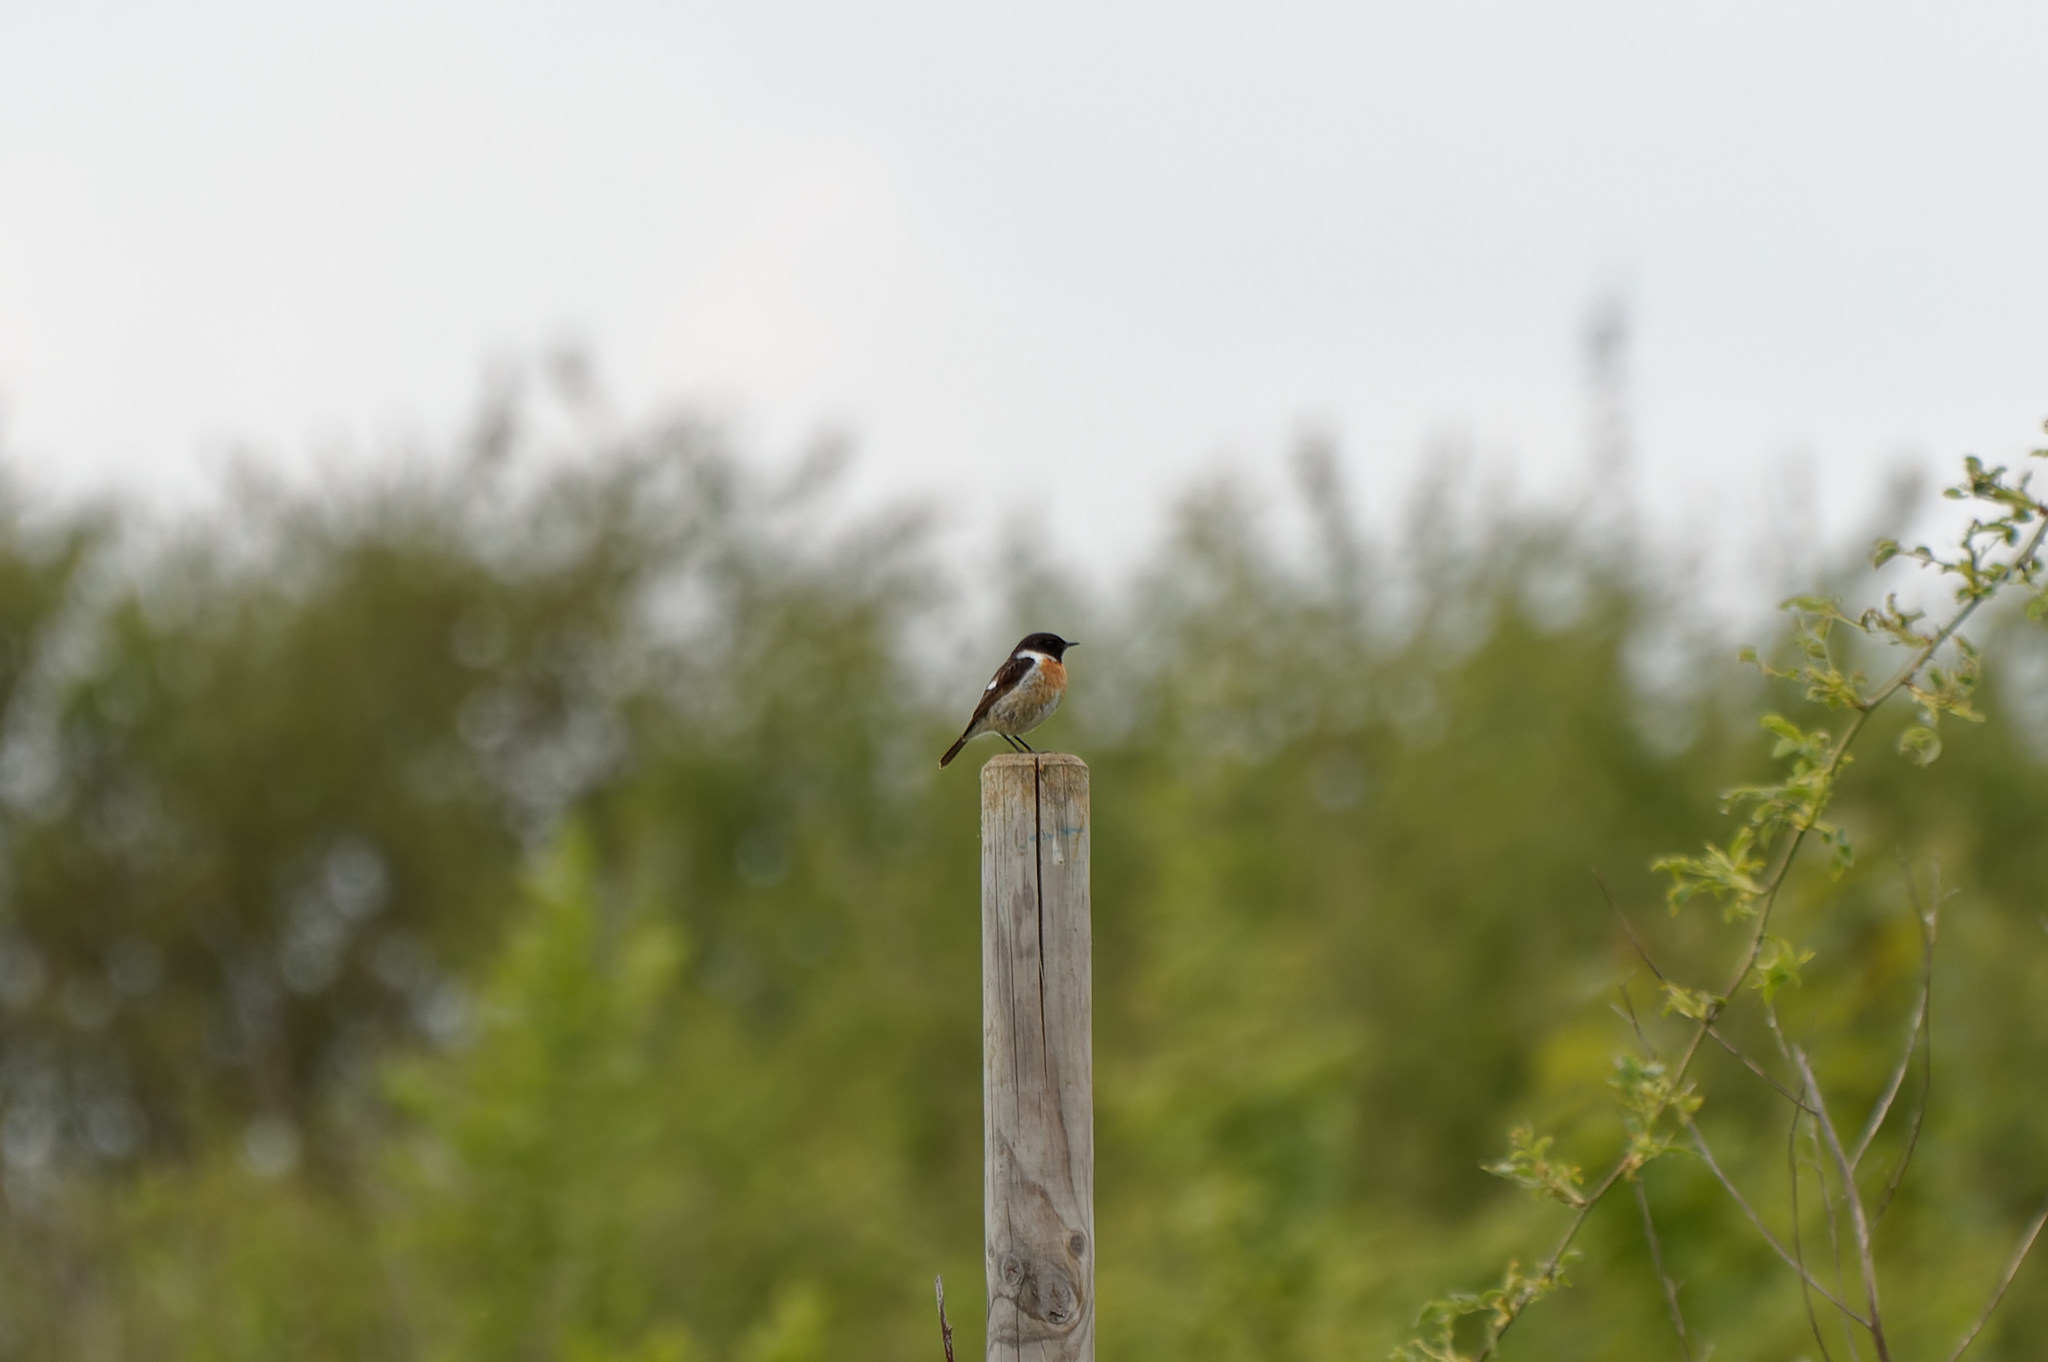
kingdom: Animalia
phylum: Chordata
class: Aves
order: Passeriformes
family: Muscicapidae
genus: Saxicola
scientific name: Saxicola rubicola
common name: European stonechat
